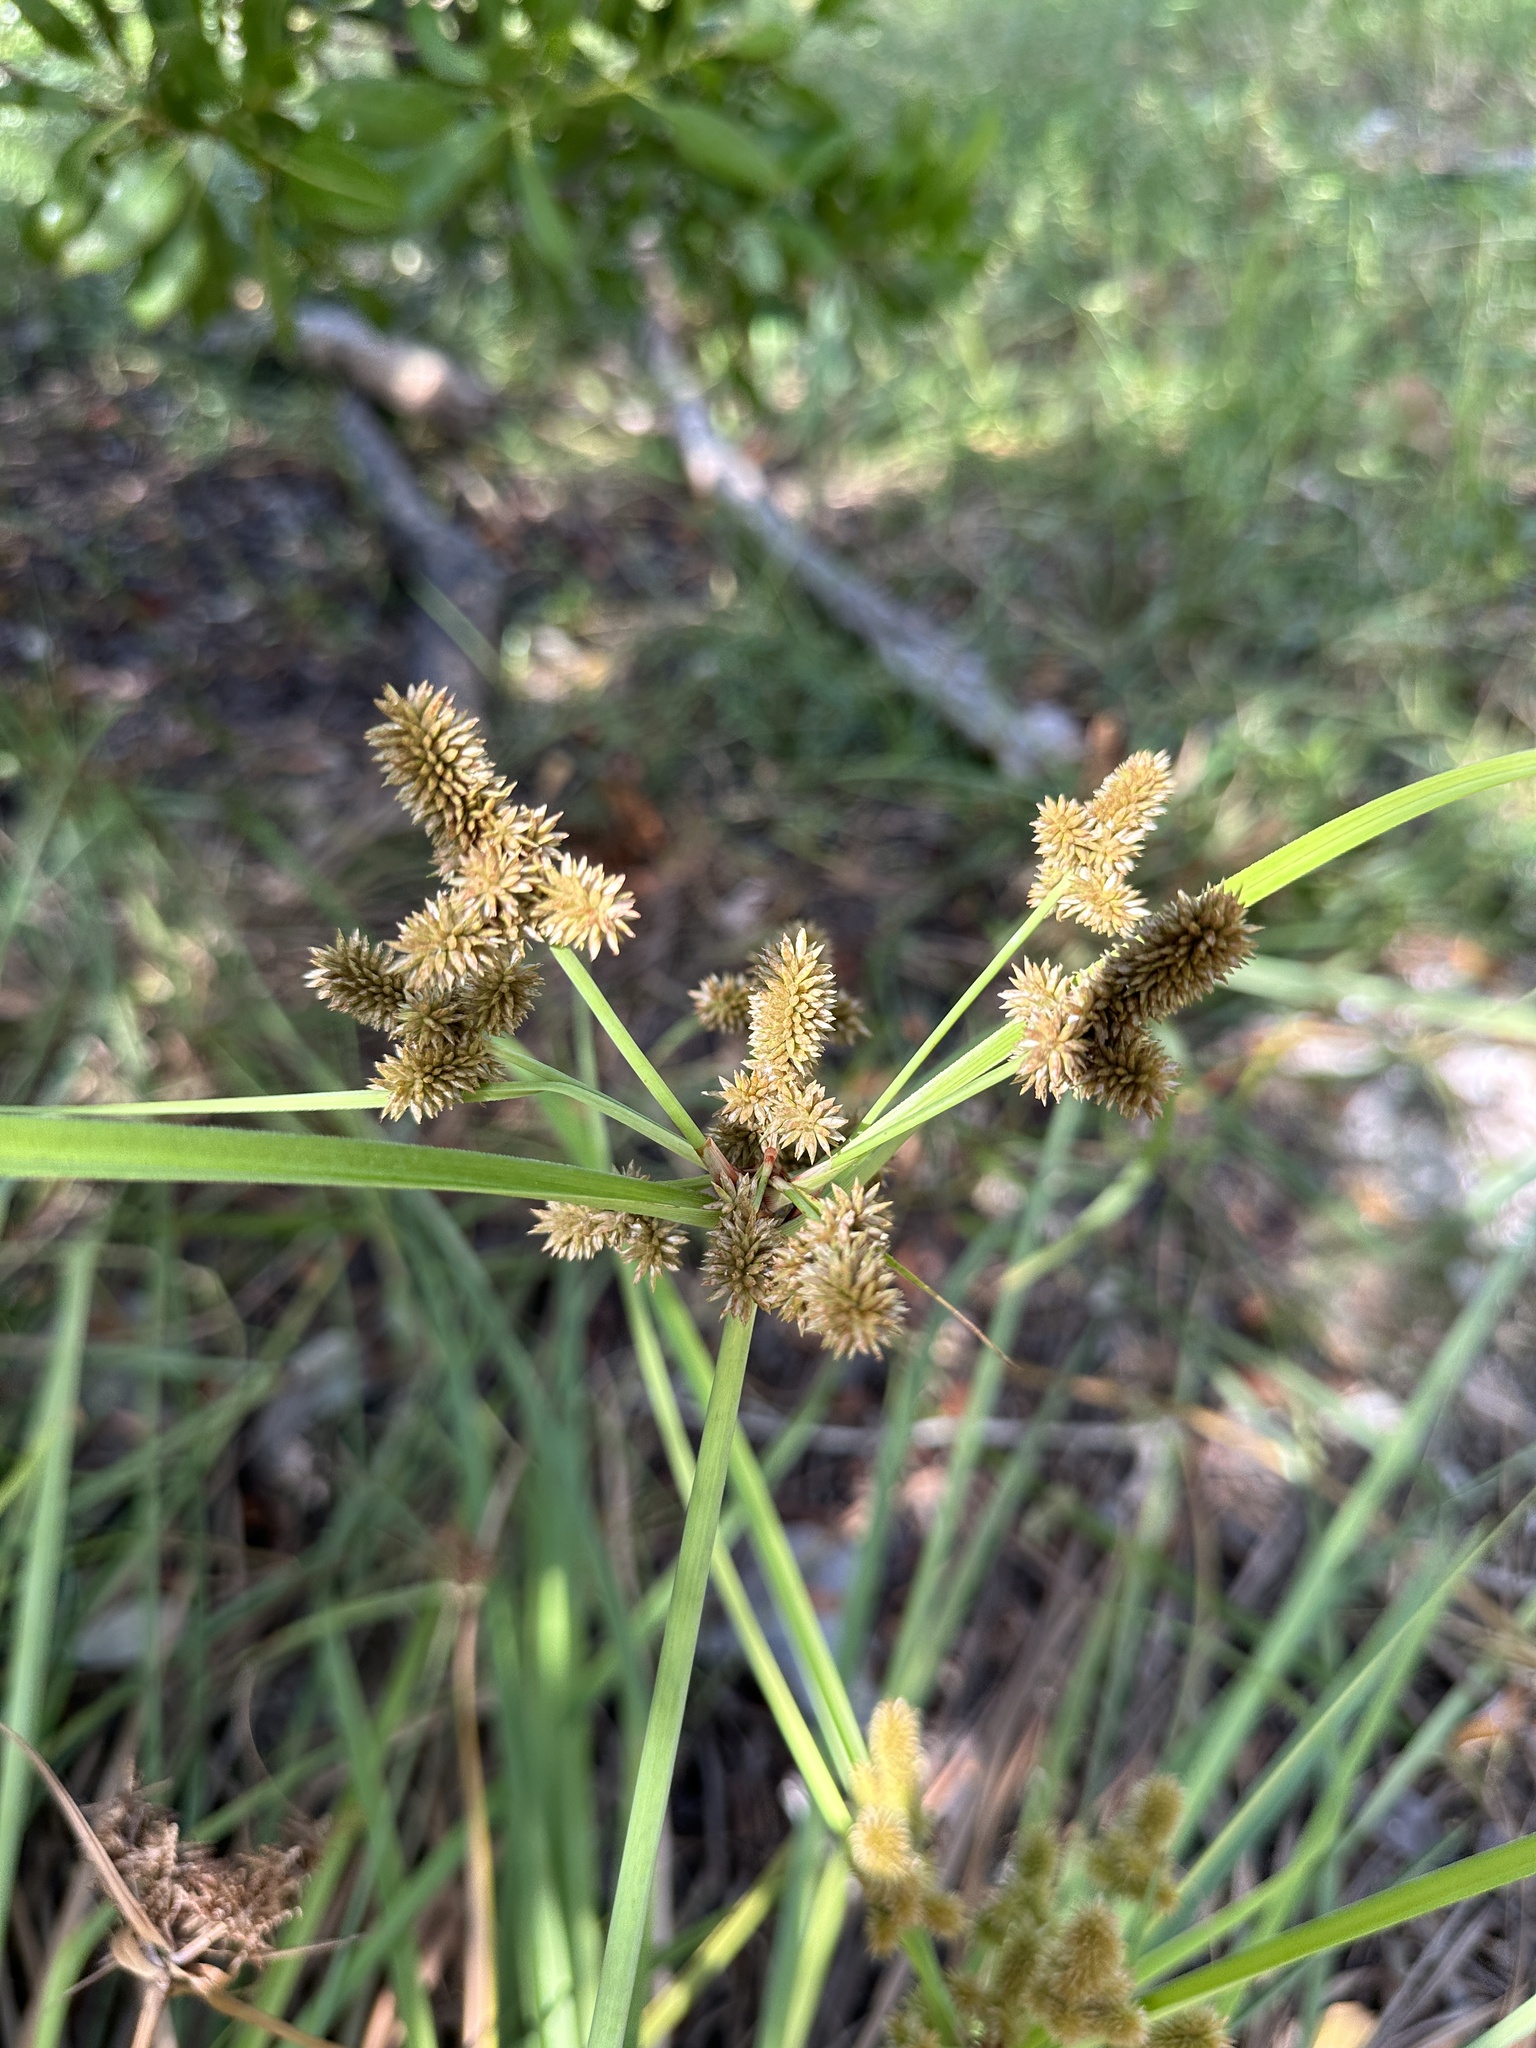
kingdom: Plantae
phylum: Tracheophyta
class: Liliopsida
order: Poales
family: Cyperaceae
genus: Cyperus
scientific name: Cyperus ligularis
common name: Swamp flat sedge
